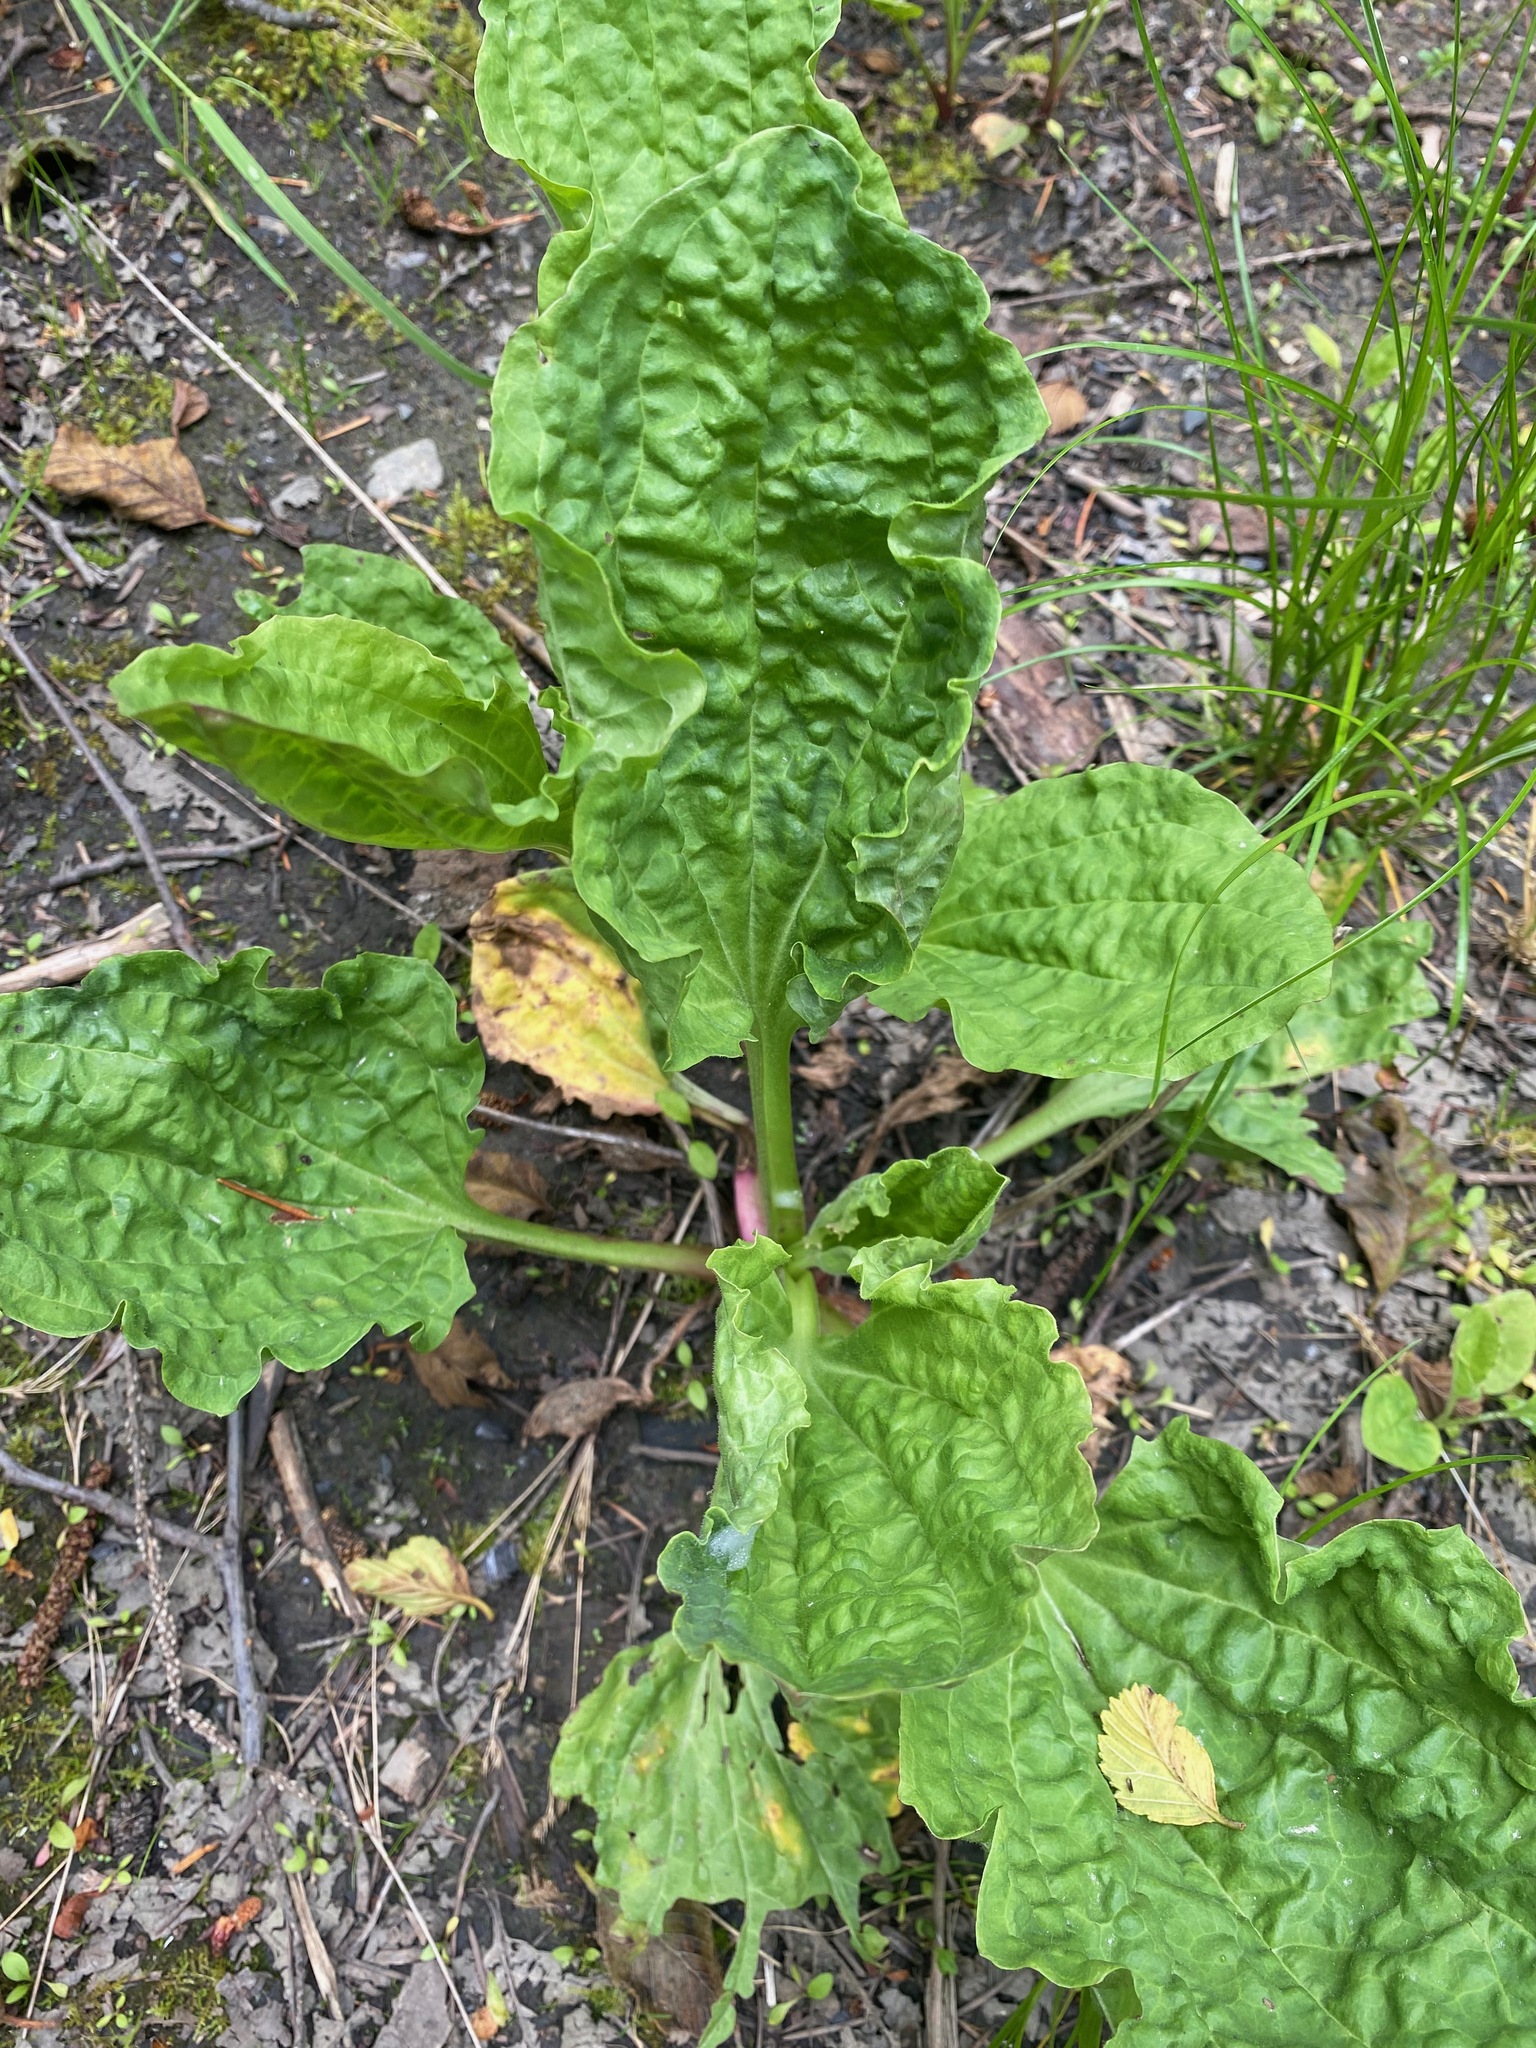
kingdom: Plantae
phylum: Tracheophyta
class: Magnoliopsida
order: Lamiales
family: Plantaginaceae
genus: Plantago
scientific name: Plantago major
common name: Common plantain
